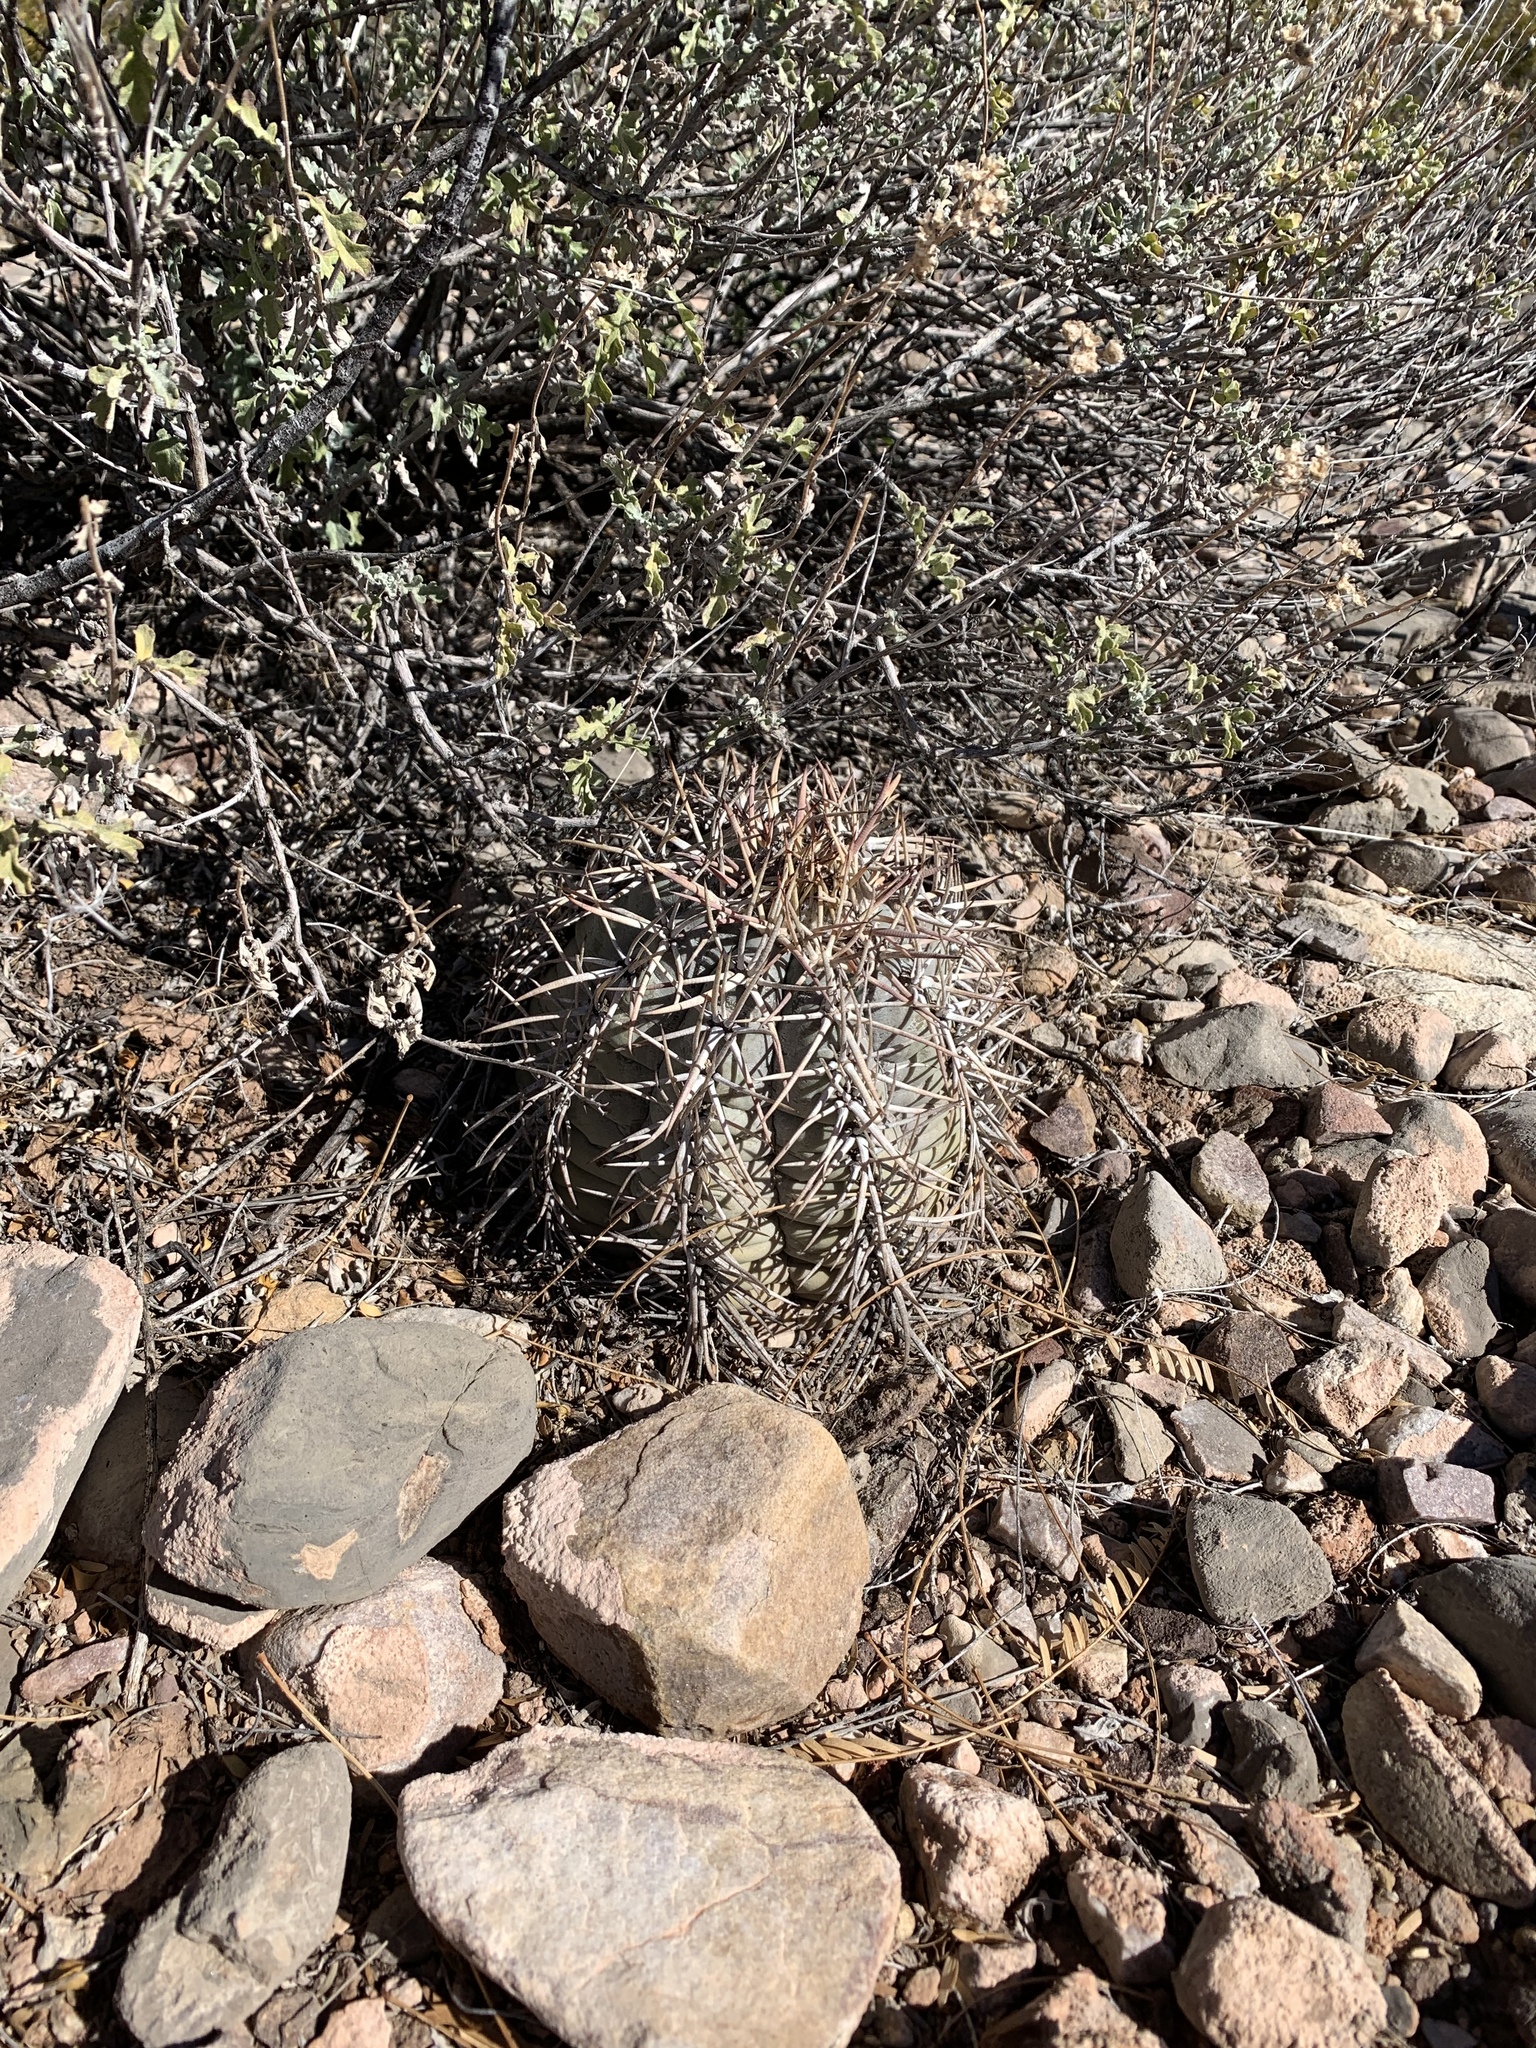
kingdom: Plantae
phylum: Tracheophyta
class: Magnoliopsida
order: Caryophyllales
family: Cactaceae
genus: Echinocactus
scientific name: Echinocactus horizonthalonius
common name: Devilshead
